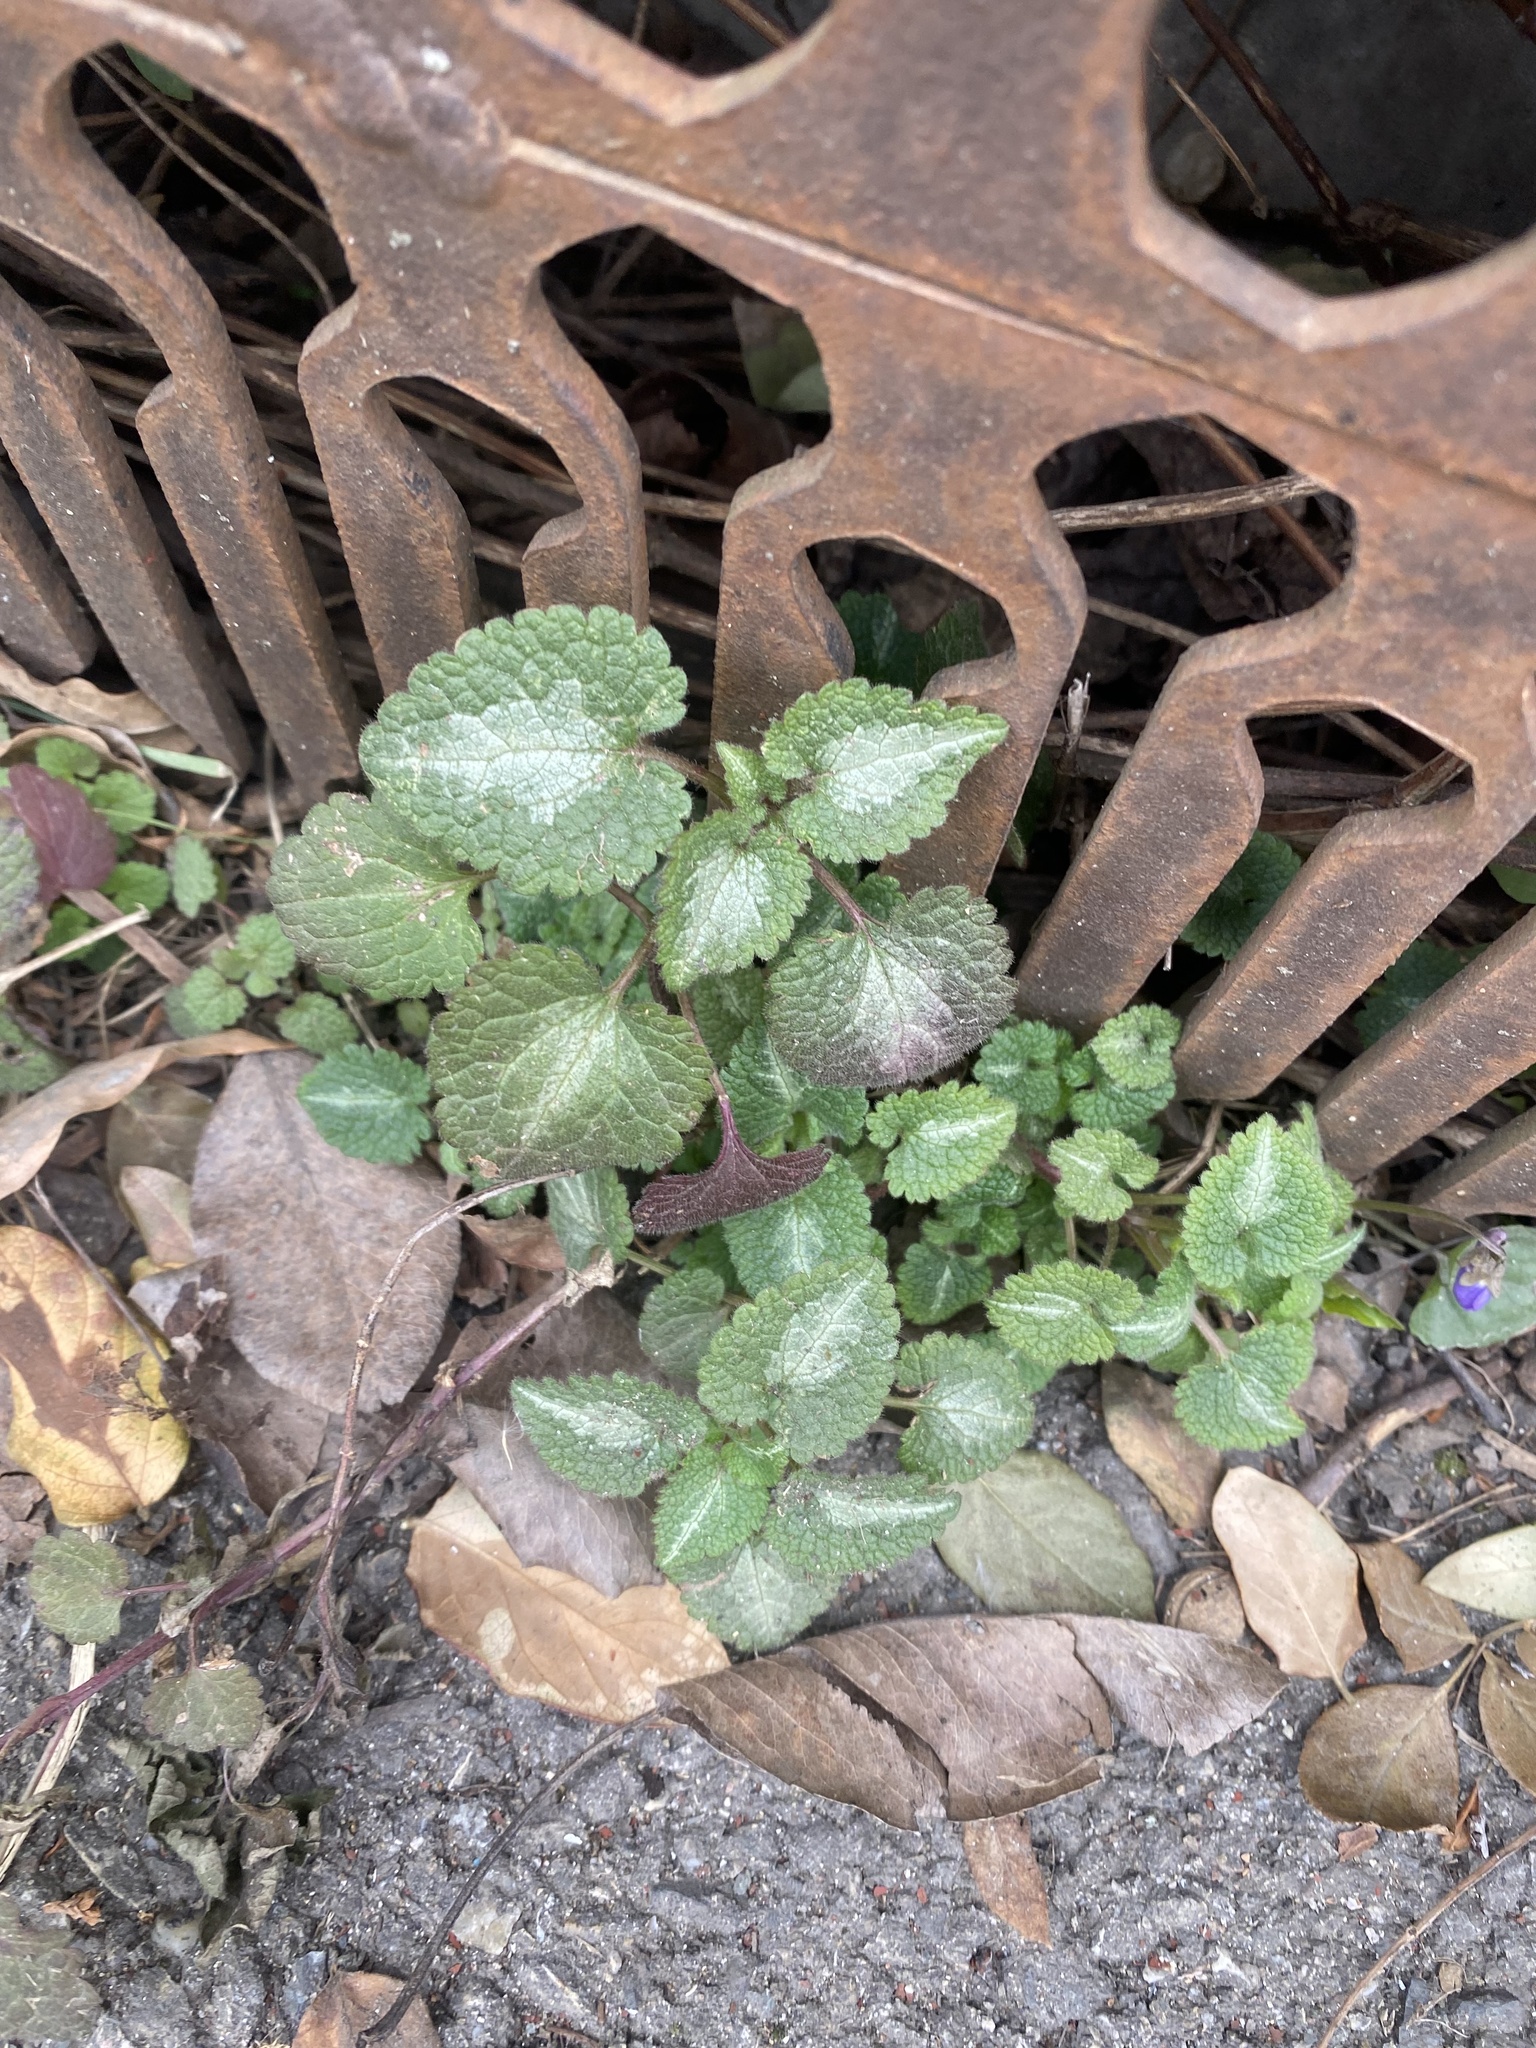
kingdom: Plantae
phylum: Tracheophyta
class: Magnoliopsida
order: Lamiales
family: Lamiaceae
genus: Lamium
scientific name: Lamium maculatum
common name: Spotted dead-nettle
